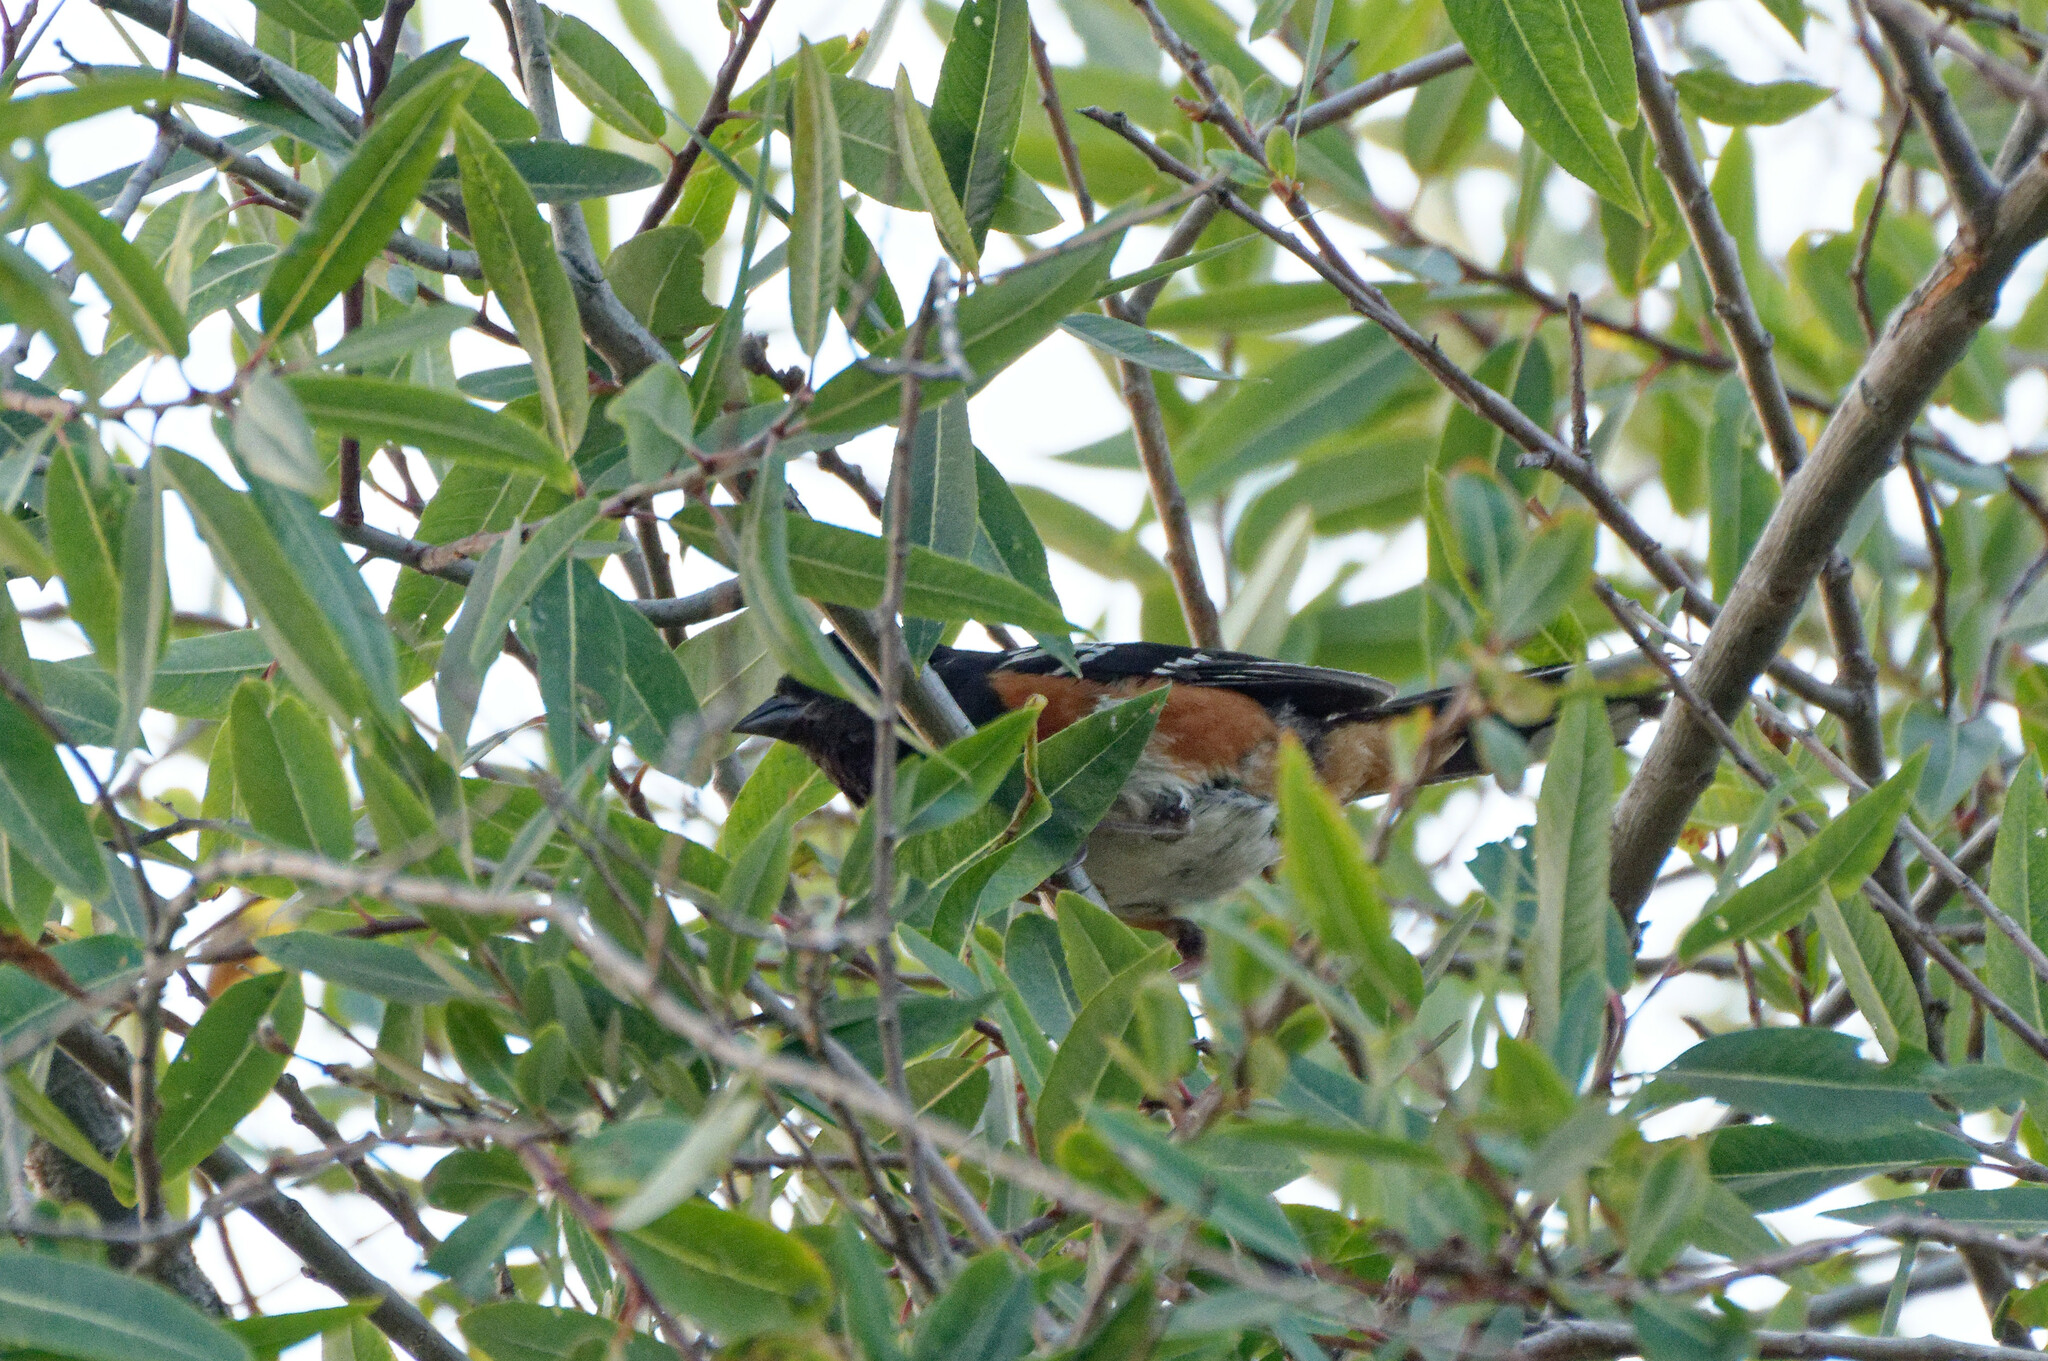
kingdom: Animalia
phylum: Chordata
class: Aves
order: Passeriformes
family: Passerellidae
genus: Pipilo
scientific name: Pipilo maculatus
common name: Spotted towhee
